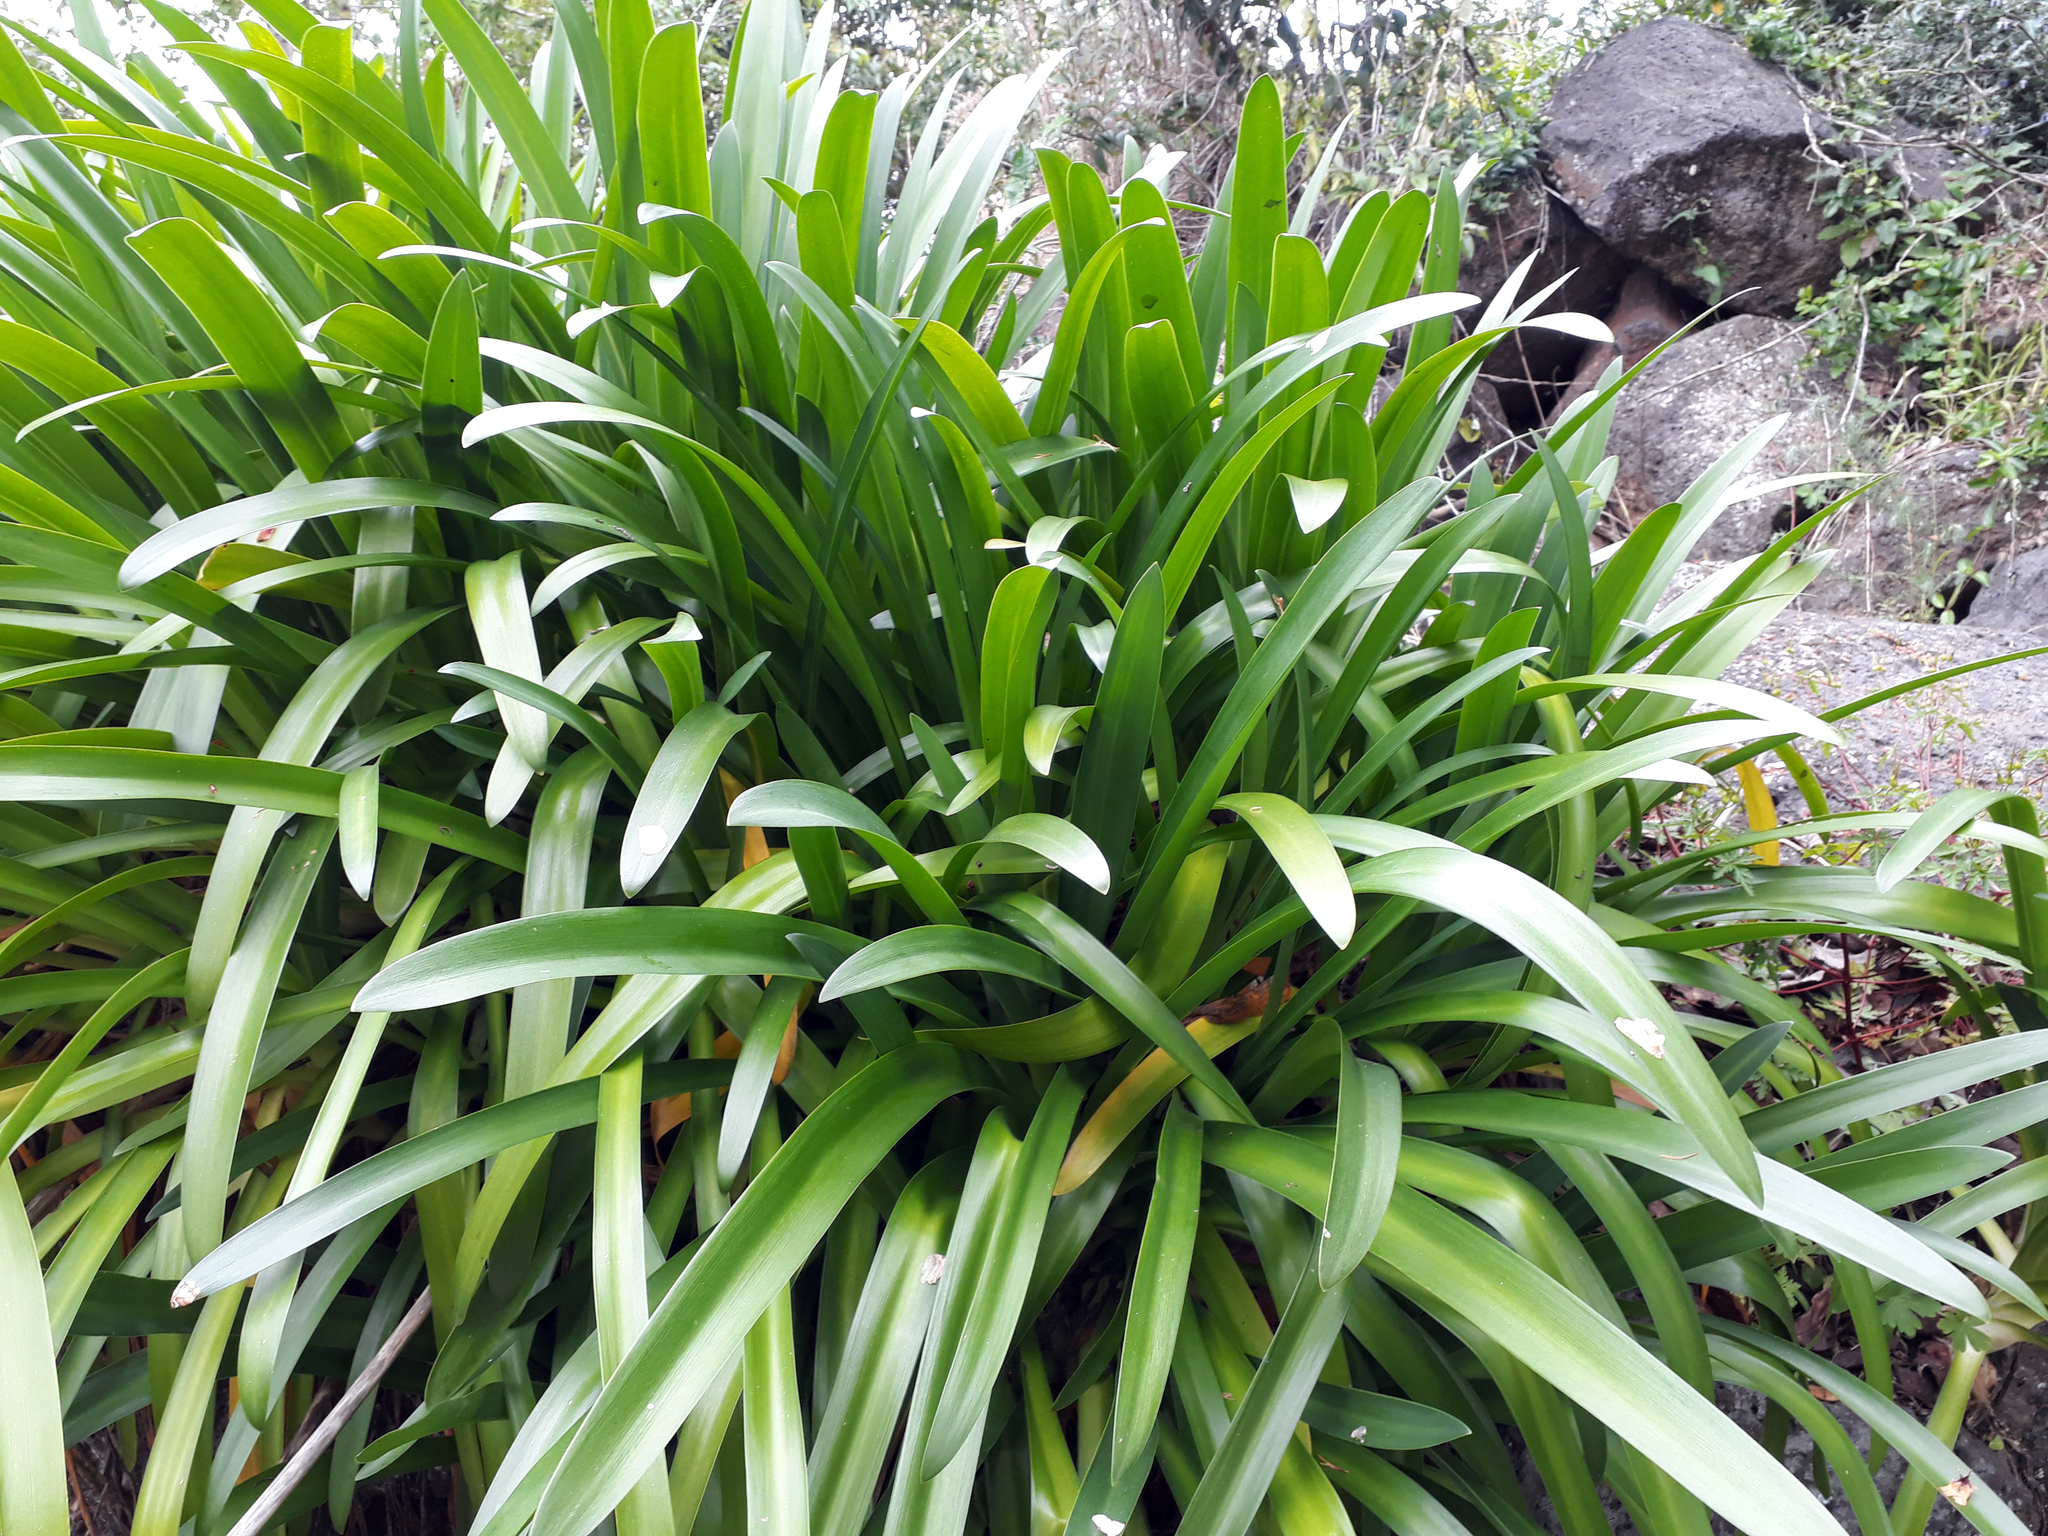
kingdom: Plantae
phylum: Tracheophyta
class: Liliopsida
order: Asparagales
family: Amaryllidaceae
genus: Agapanthus
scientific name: Agapanthus praecox
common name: African-lily
